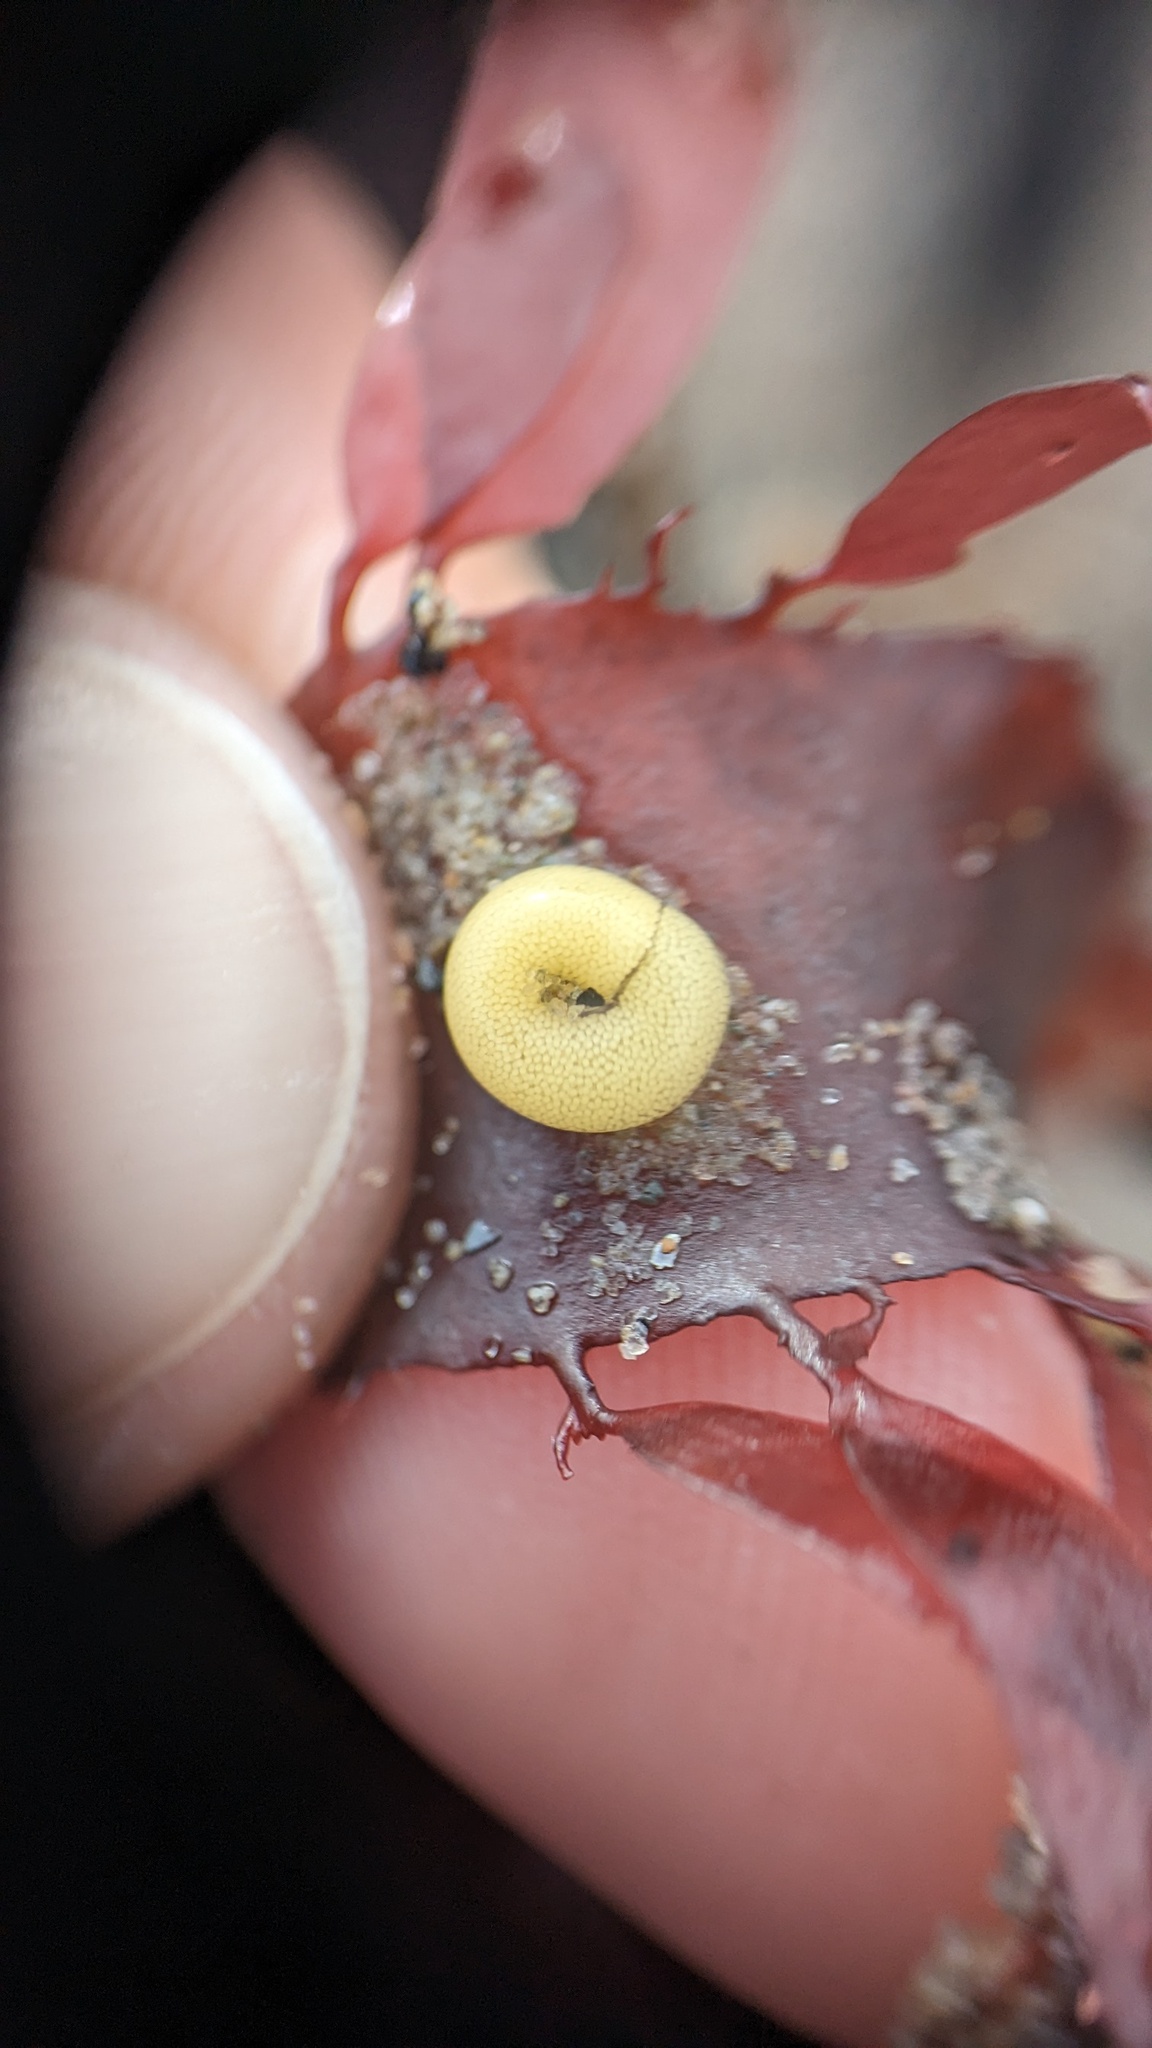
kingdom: Animalia
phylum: Mollusca
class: Gastropoda
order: Littorinimorpha
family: Littorinidae
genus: Lacuna
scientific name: Lacuna vincta
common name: Banded chink shell
